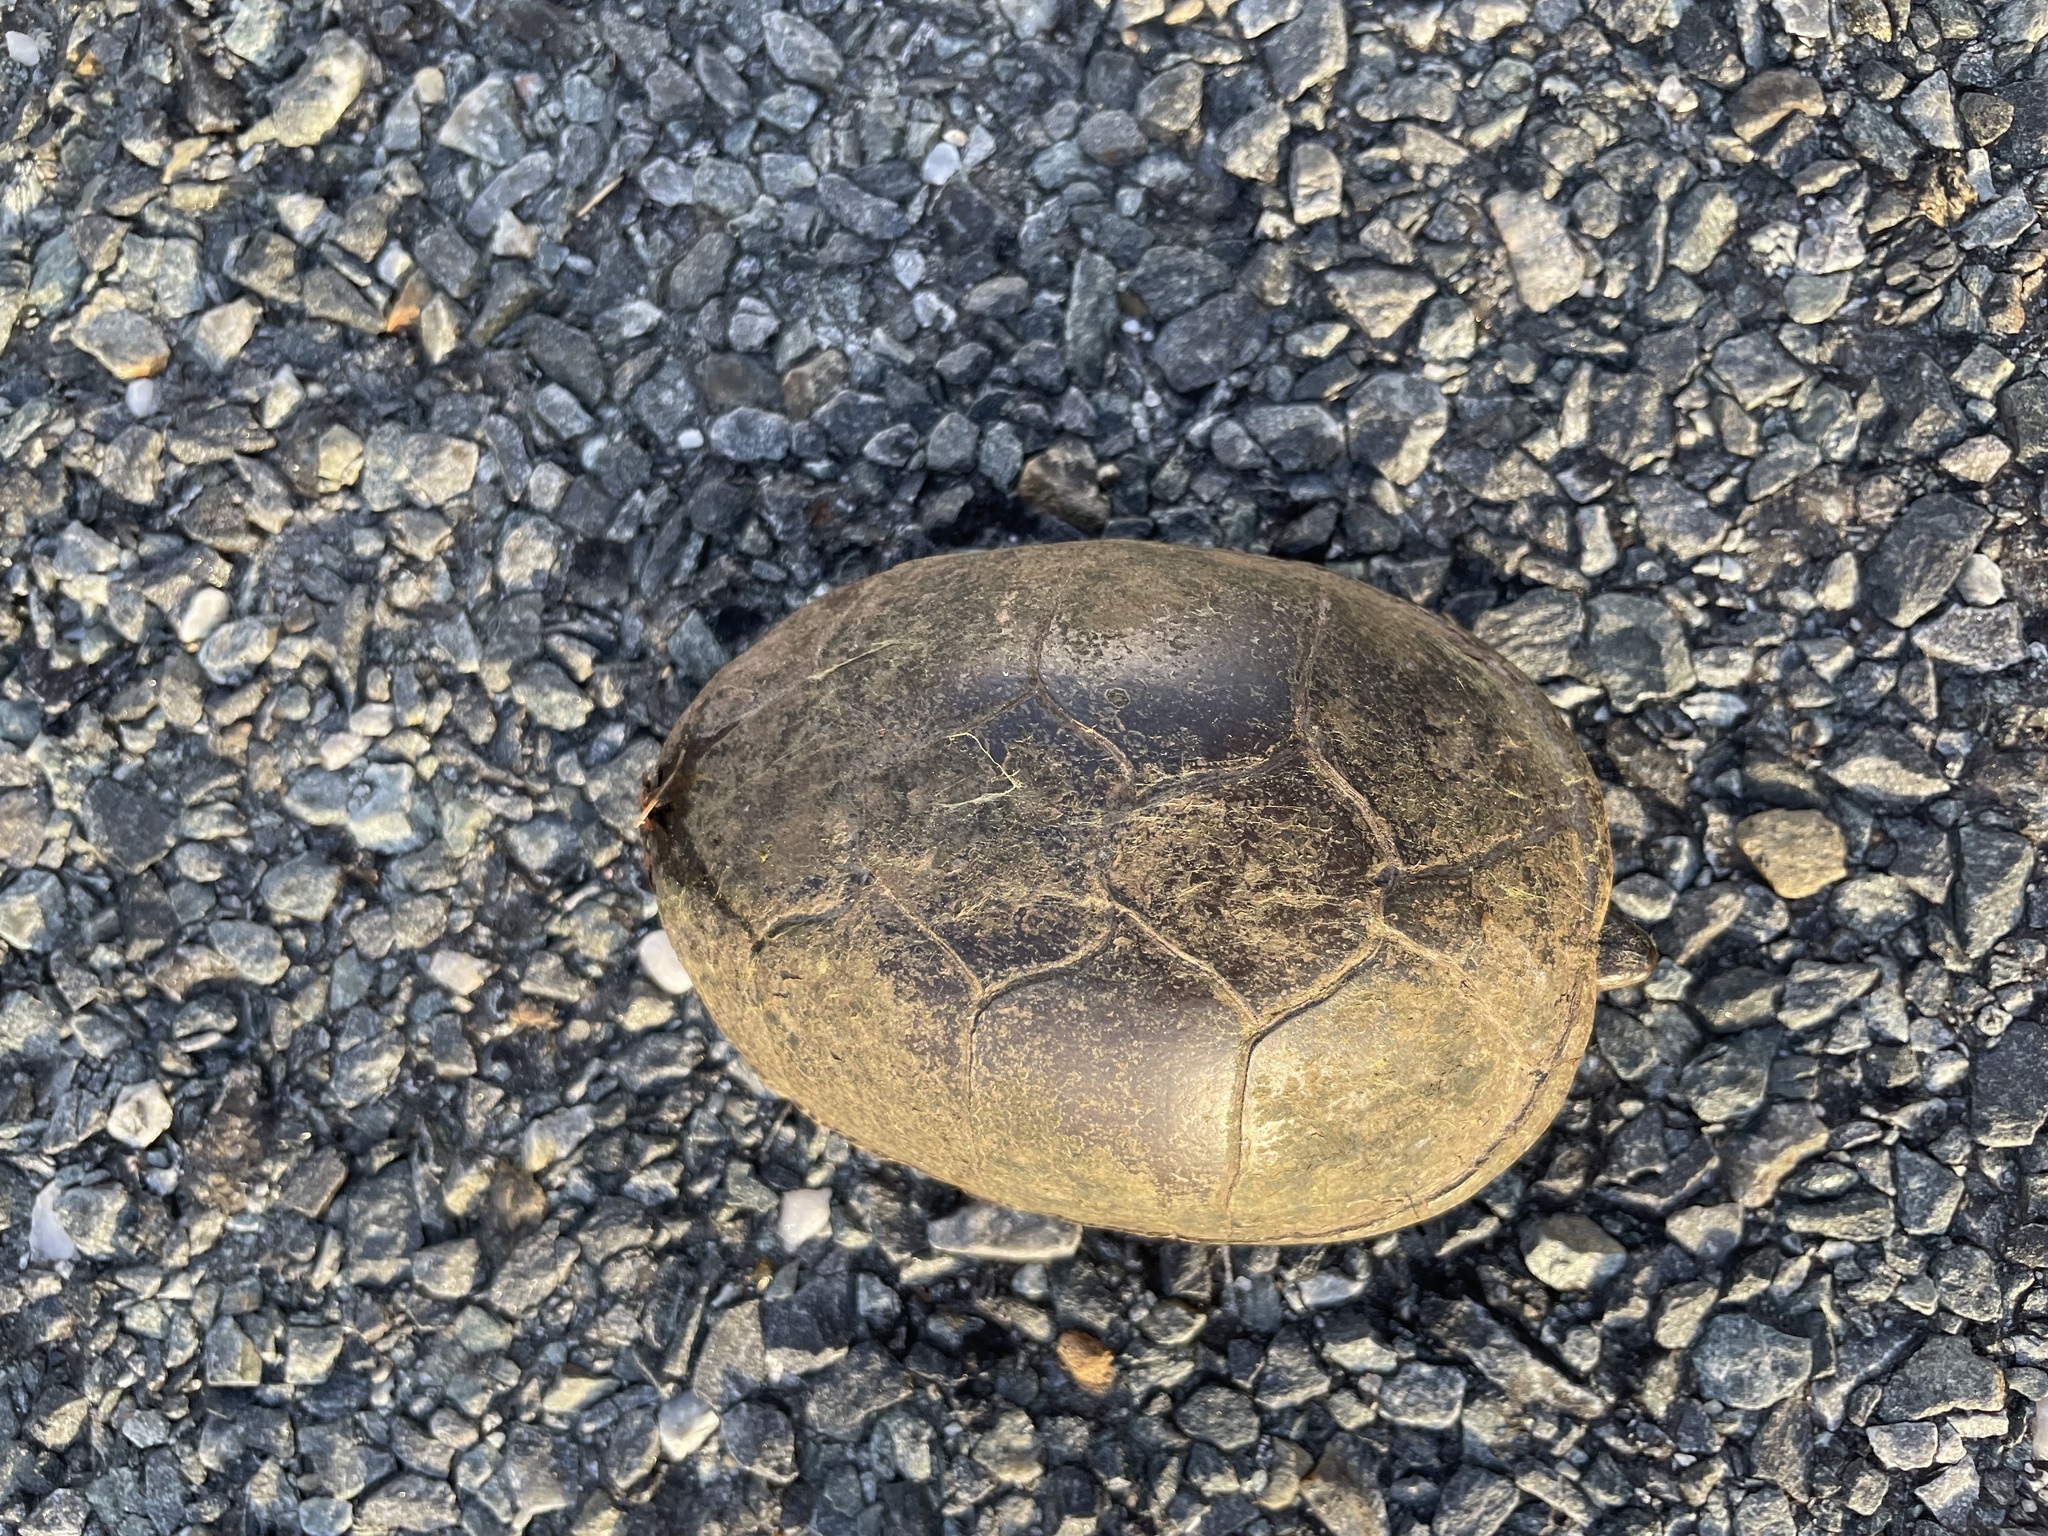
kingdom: Animalia
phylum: Chordata
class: Testudines
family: Kinosternidae
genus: Kinosternon
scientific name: Kinosternon subrubrum
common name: Eastern mud turtle
